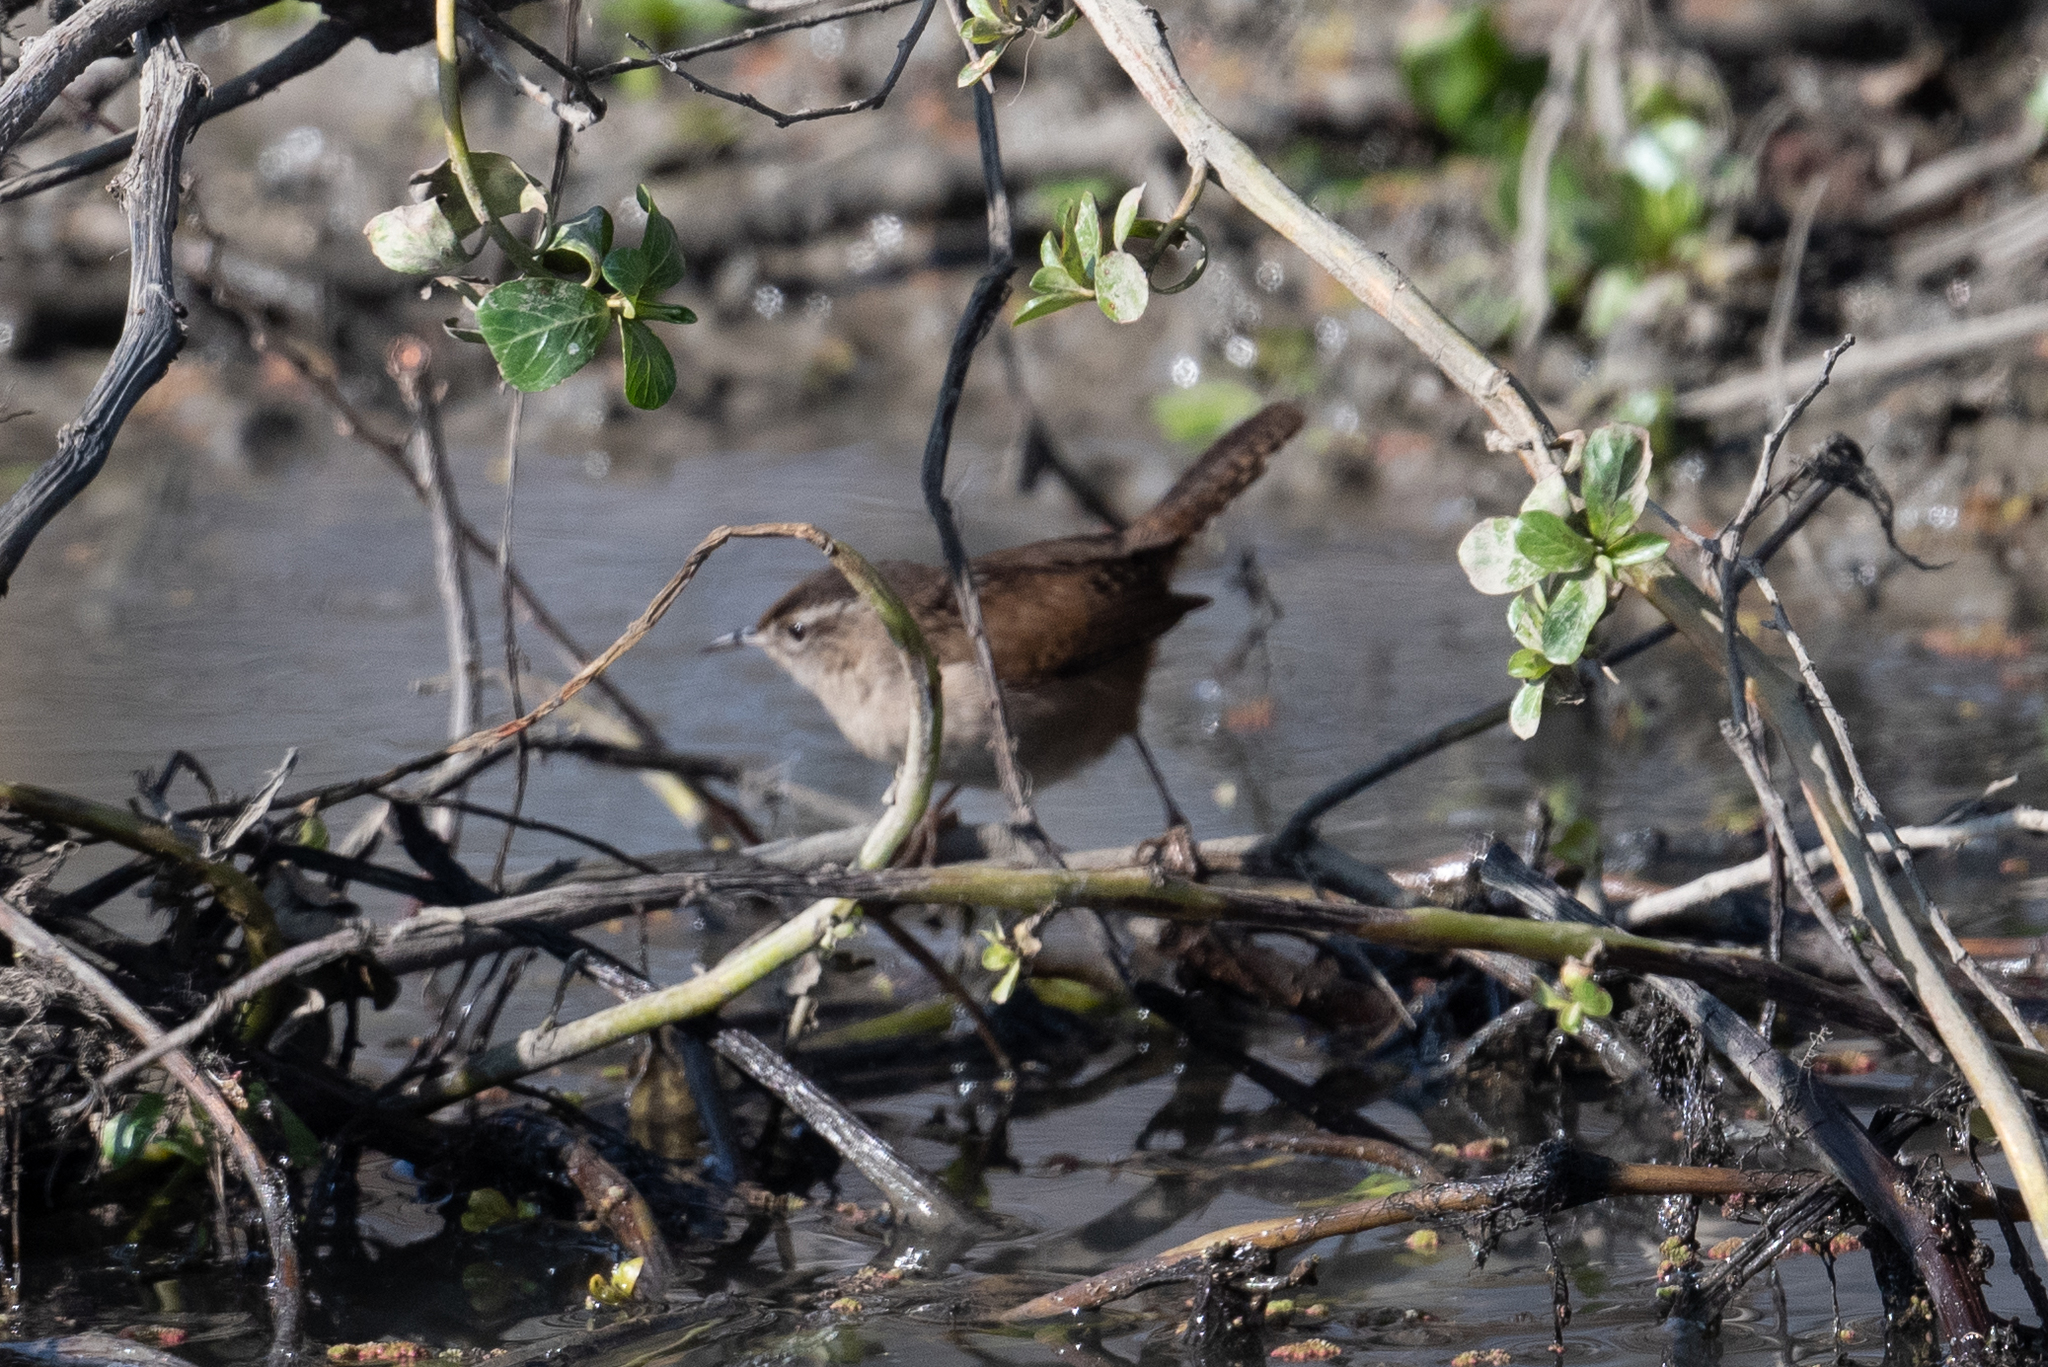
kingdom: Animalia
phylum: Chordata
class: Aves
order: Passeriformes
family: Troglodytidae
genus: Cistothorus
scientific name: Cistothorus palustris
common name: Marsh wren
